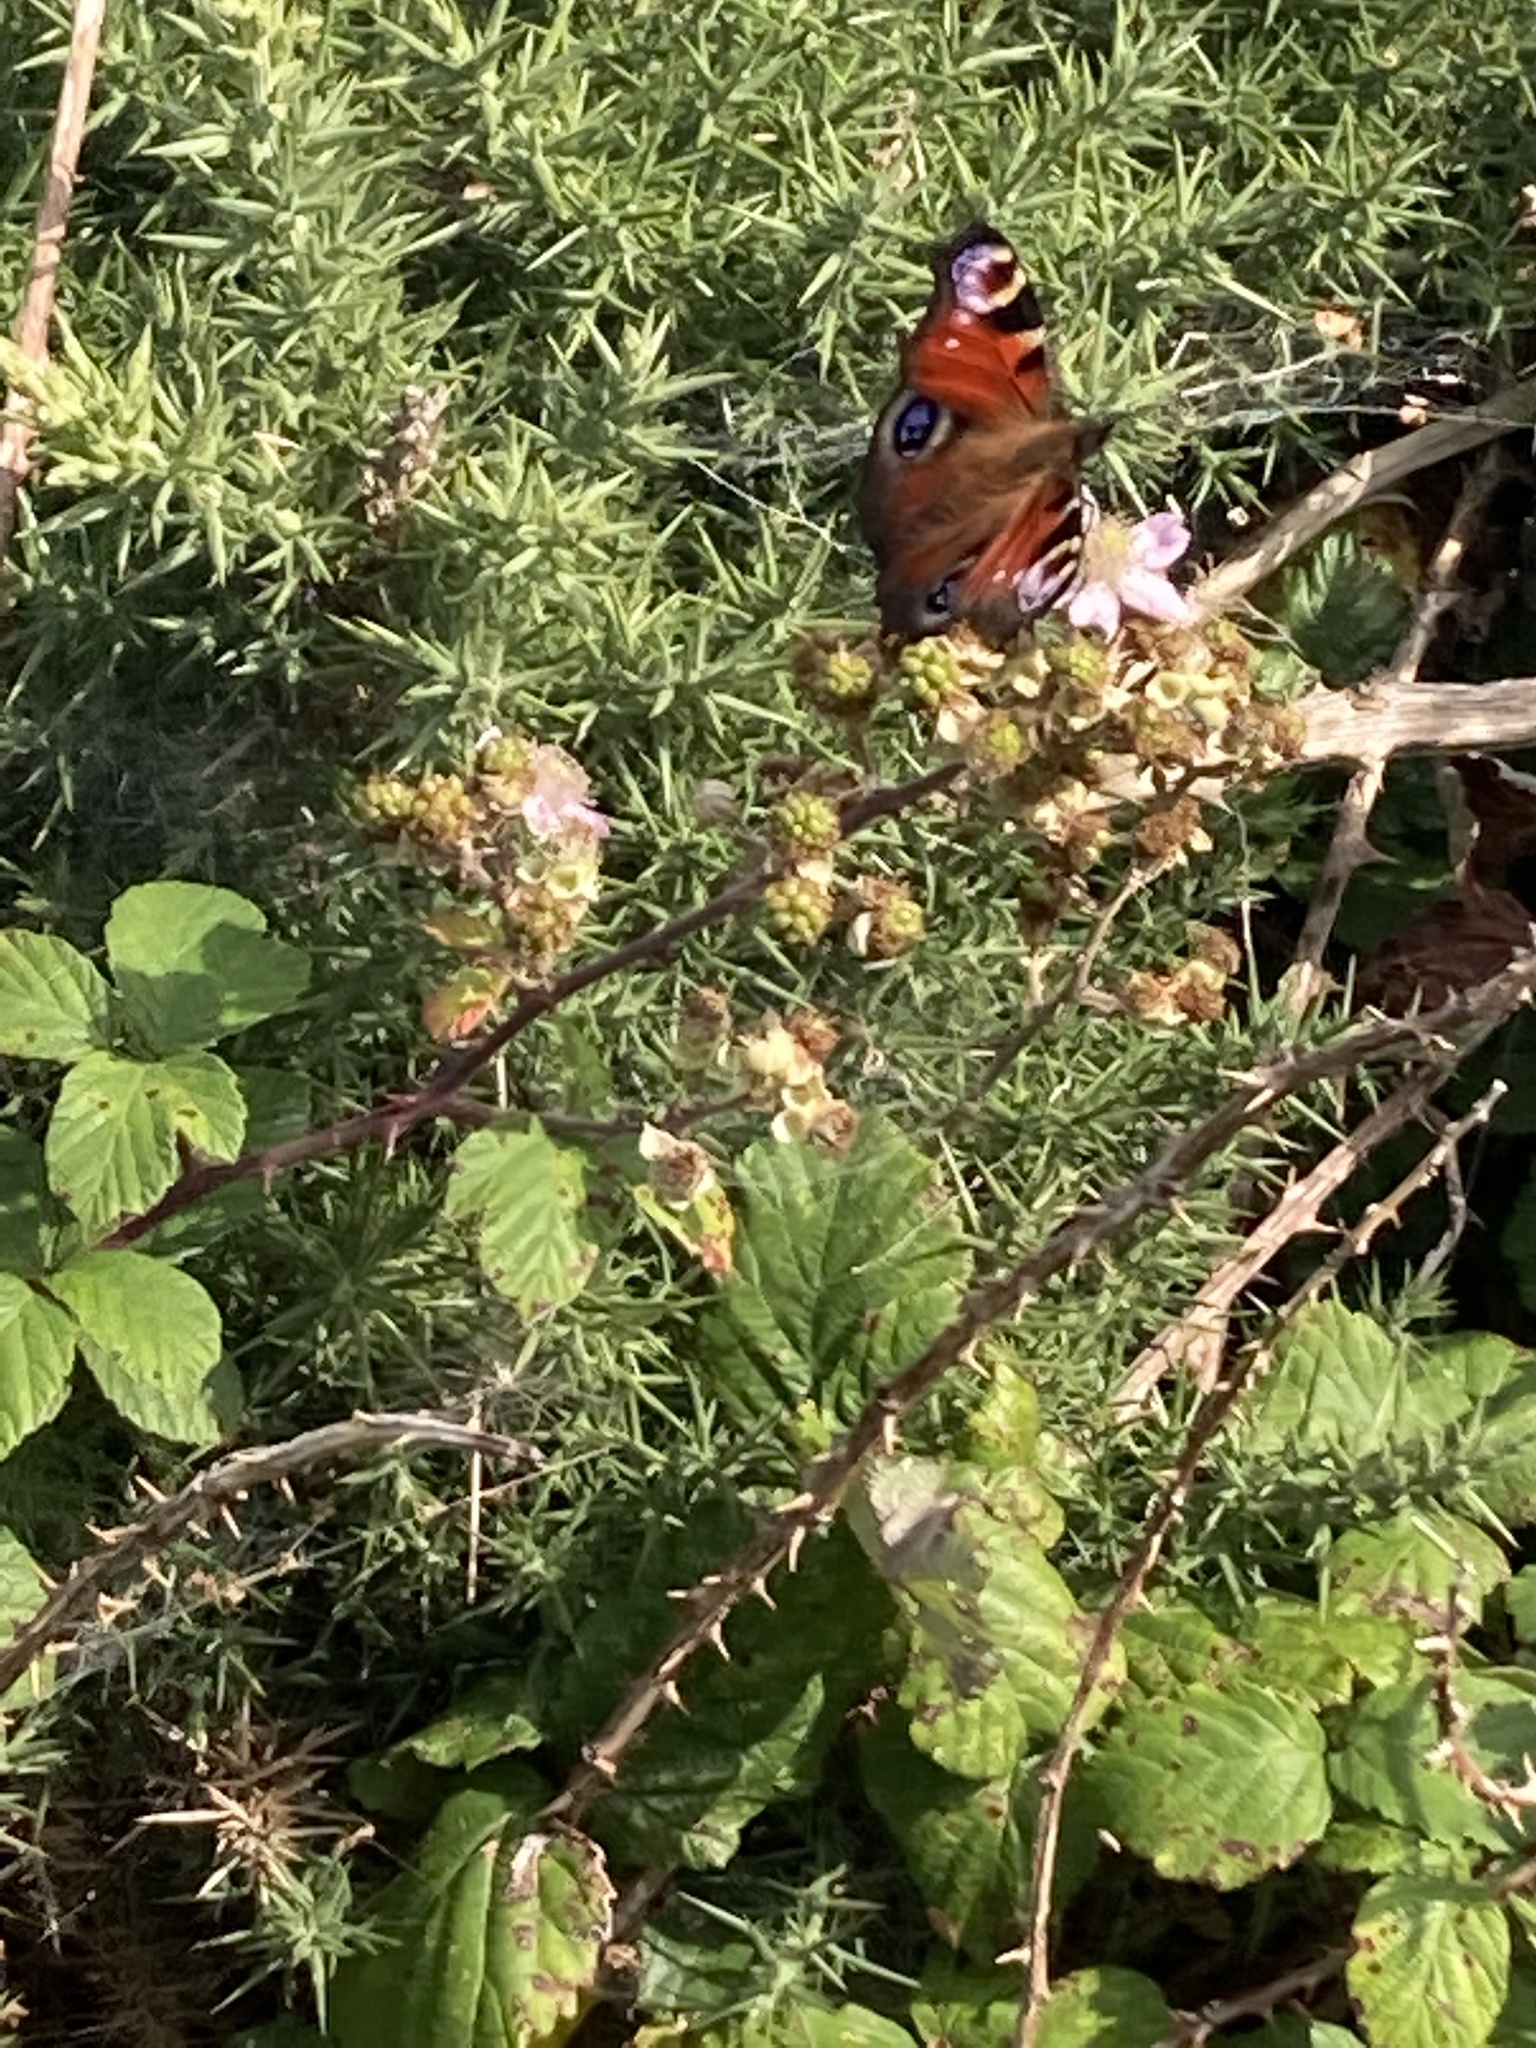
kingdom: Animalia
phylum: Arthropoda
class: Insecta
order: Lepidoptera
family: Nymphalidae
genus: Aglais
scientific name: Aglais io
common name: Peacock
